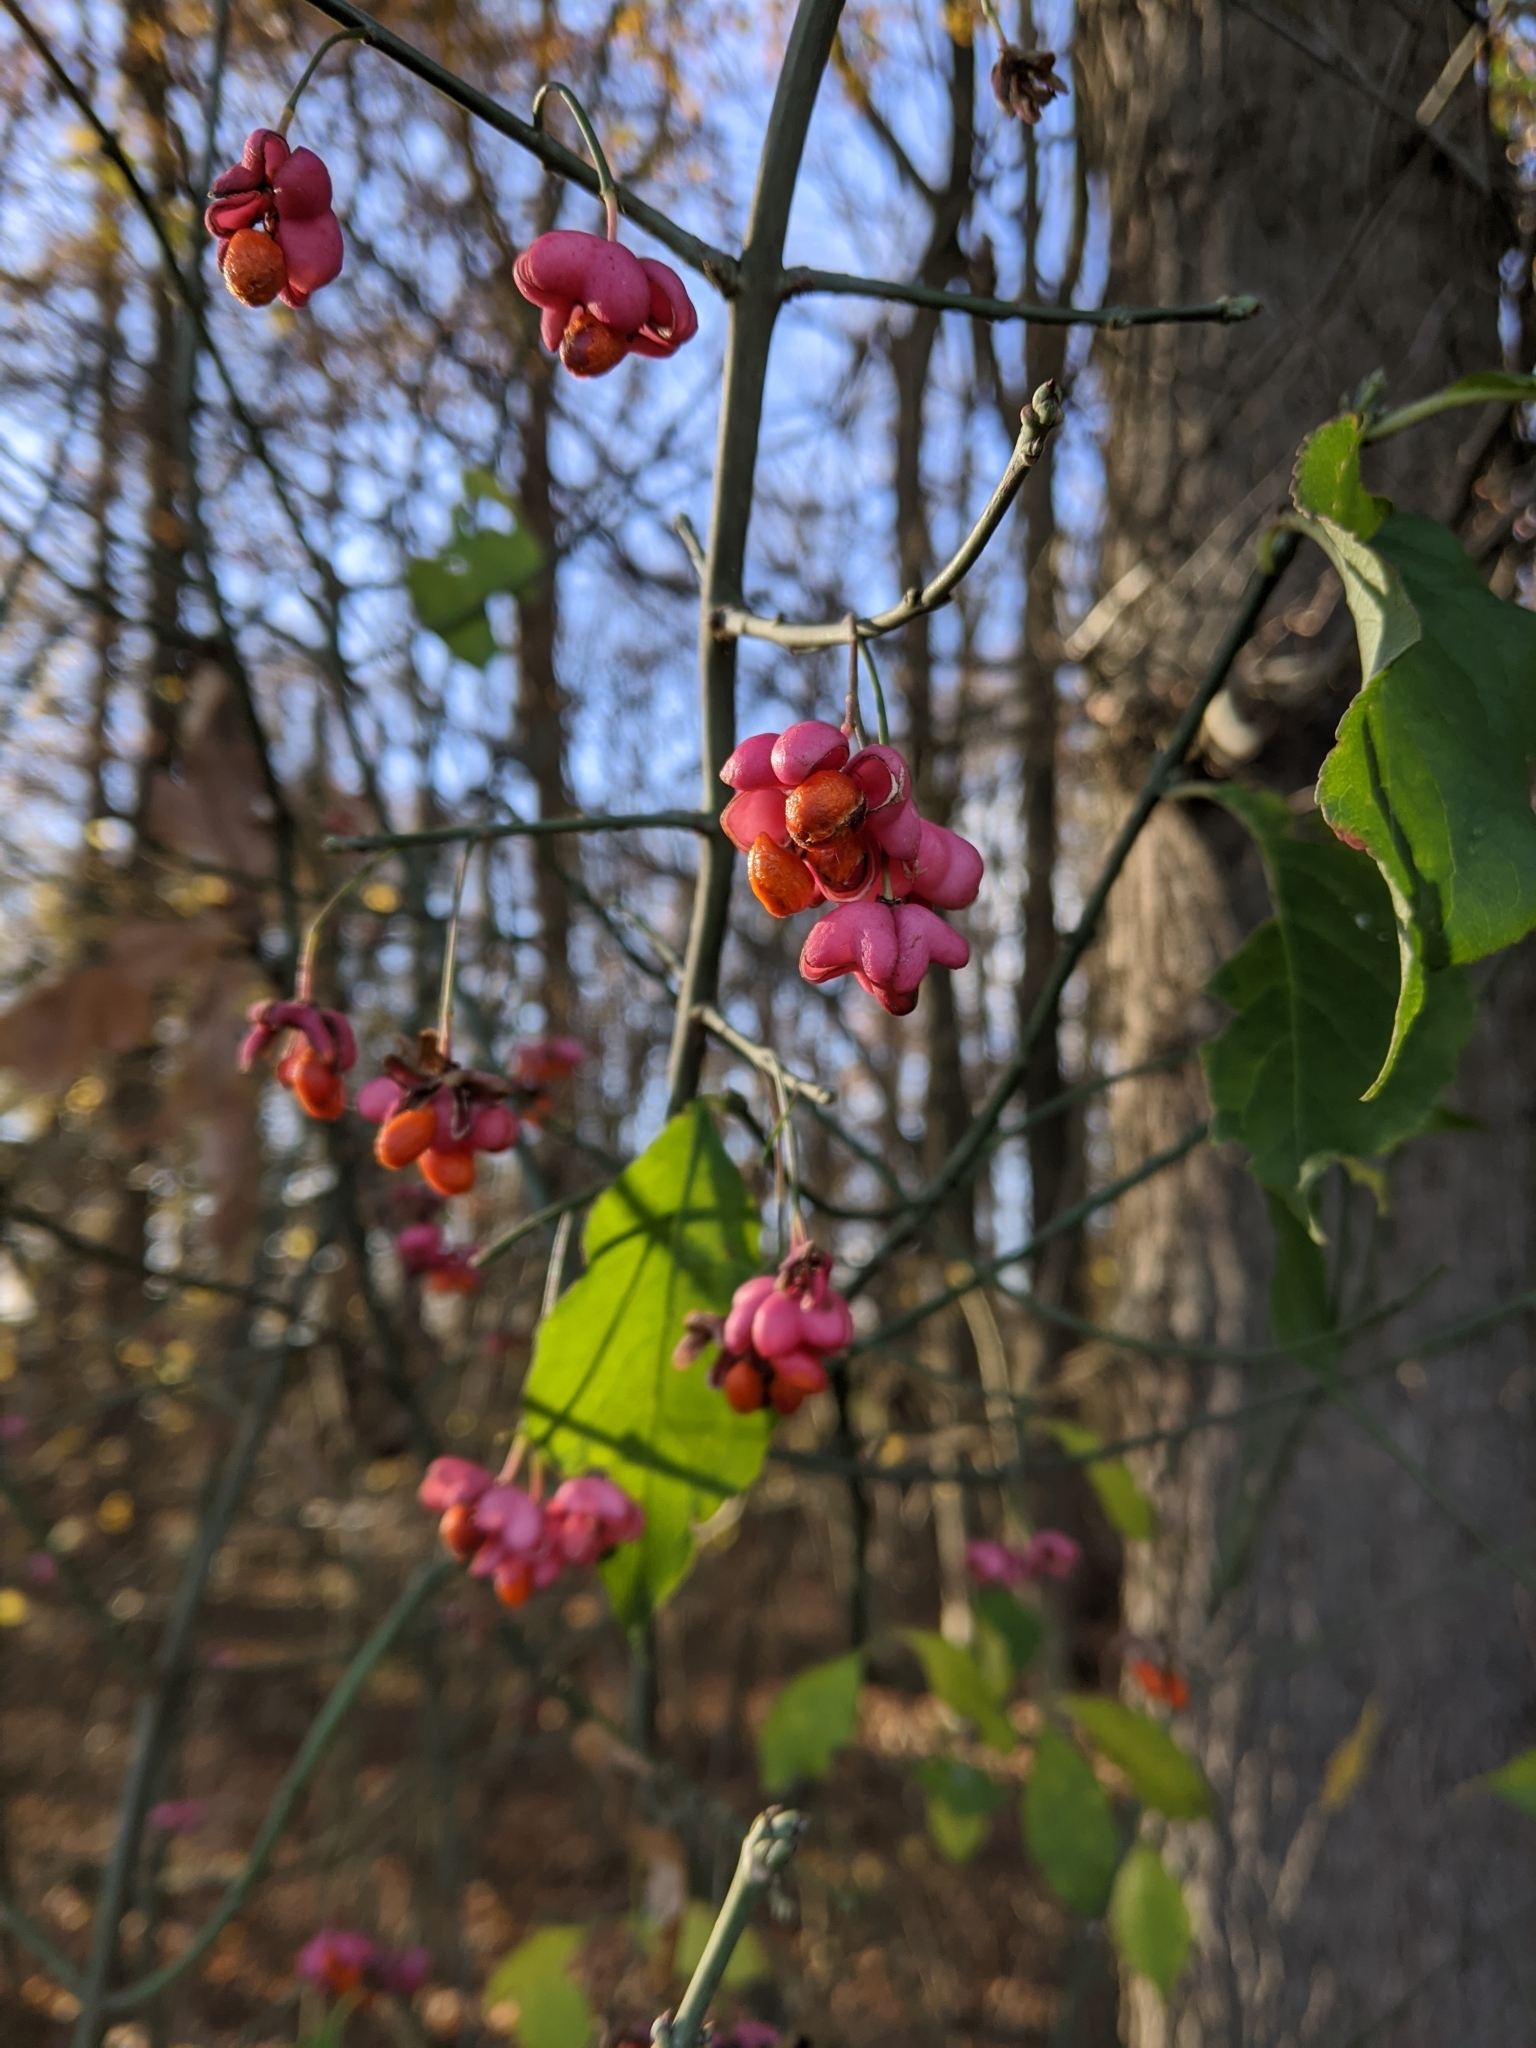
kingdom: Plantae
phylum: Tracheophyta
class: Magnoliopsida
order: Celastrales
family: Celastraceae
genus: Euonymus
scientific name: Euonymus europaeus
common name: Spindle
